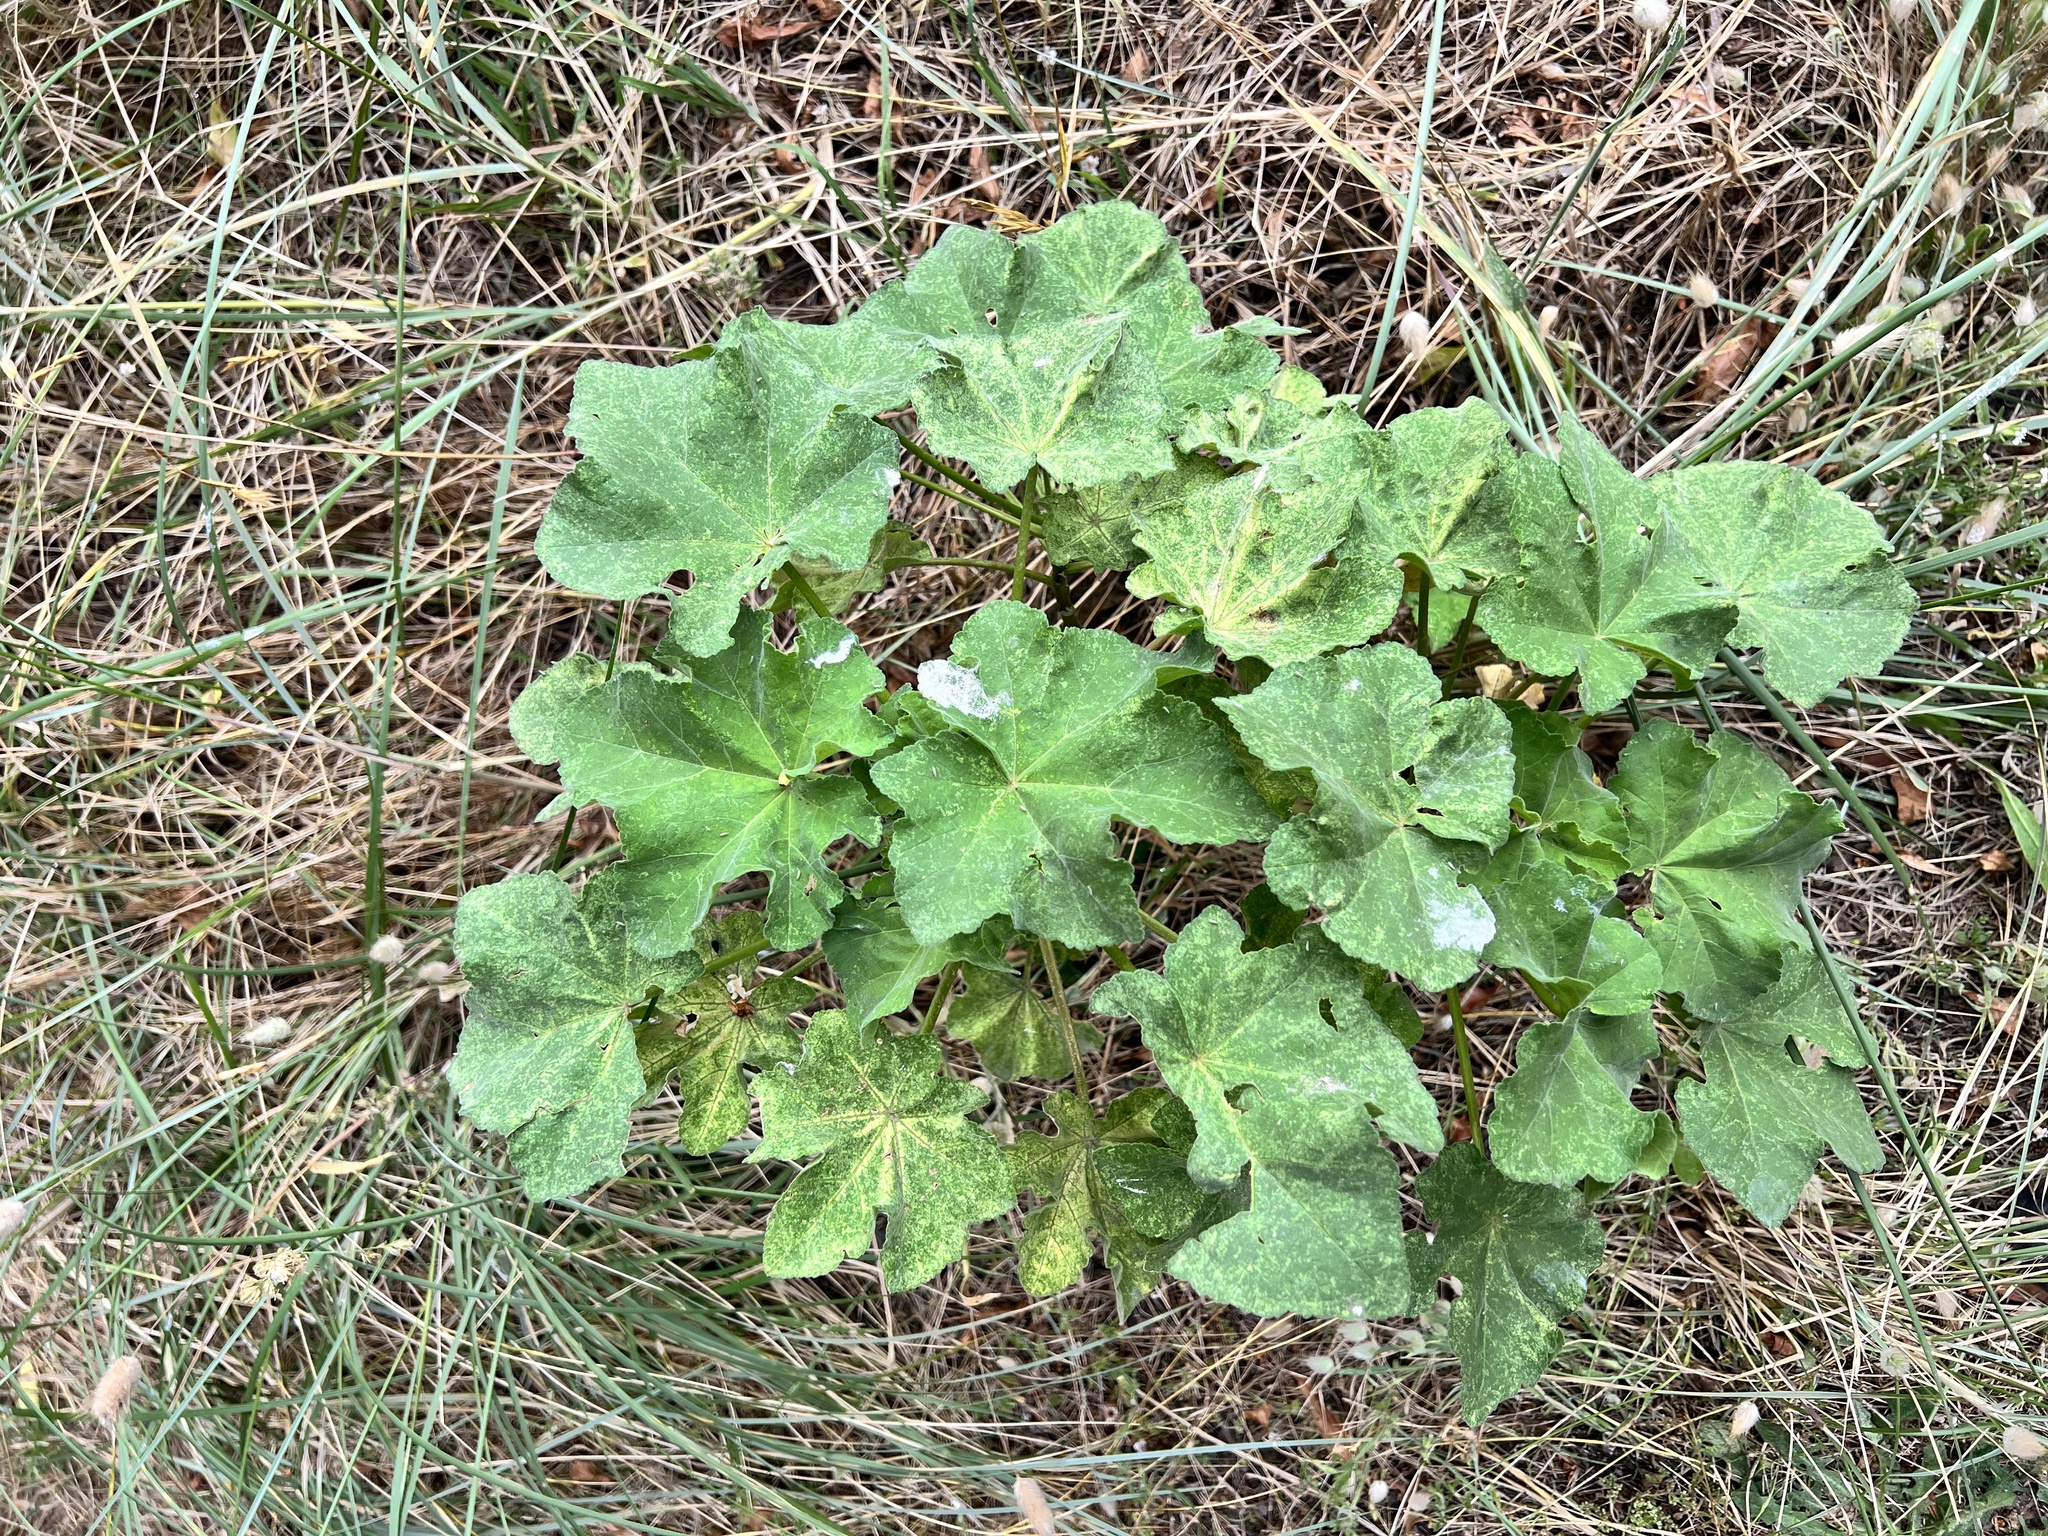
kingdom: Plantae
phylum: Tracheophyta
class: Magnoliopsida
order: Malvales
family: Malvaceae
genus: Malva
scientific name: Malva arborea
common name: Tree mallow
